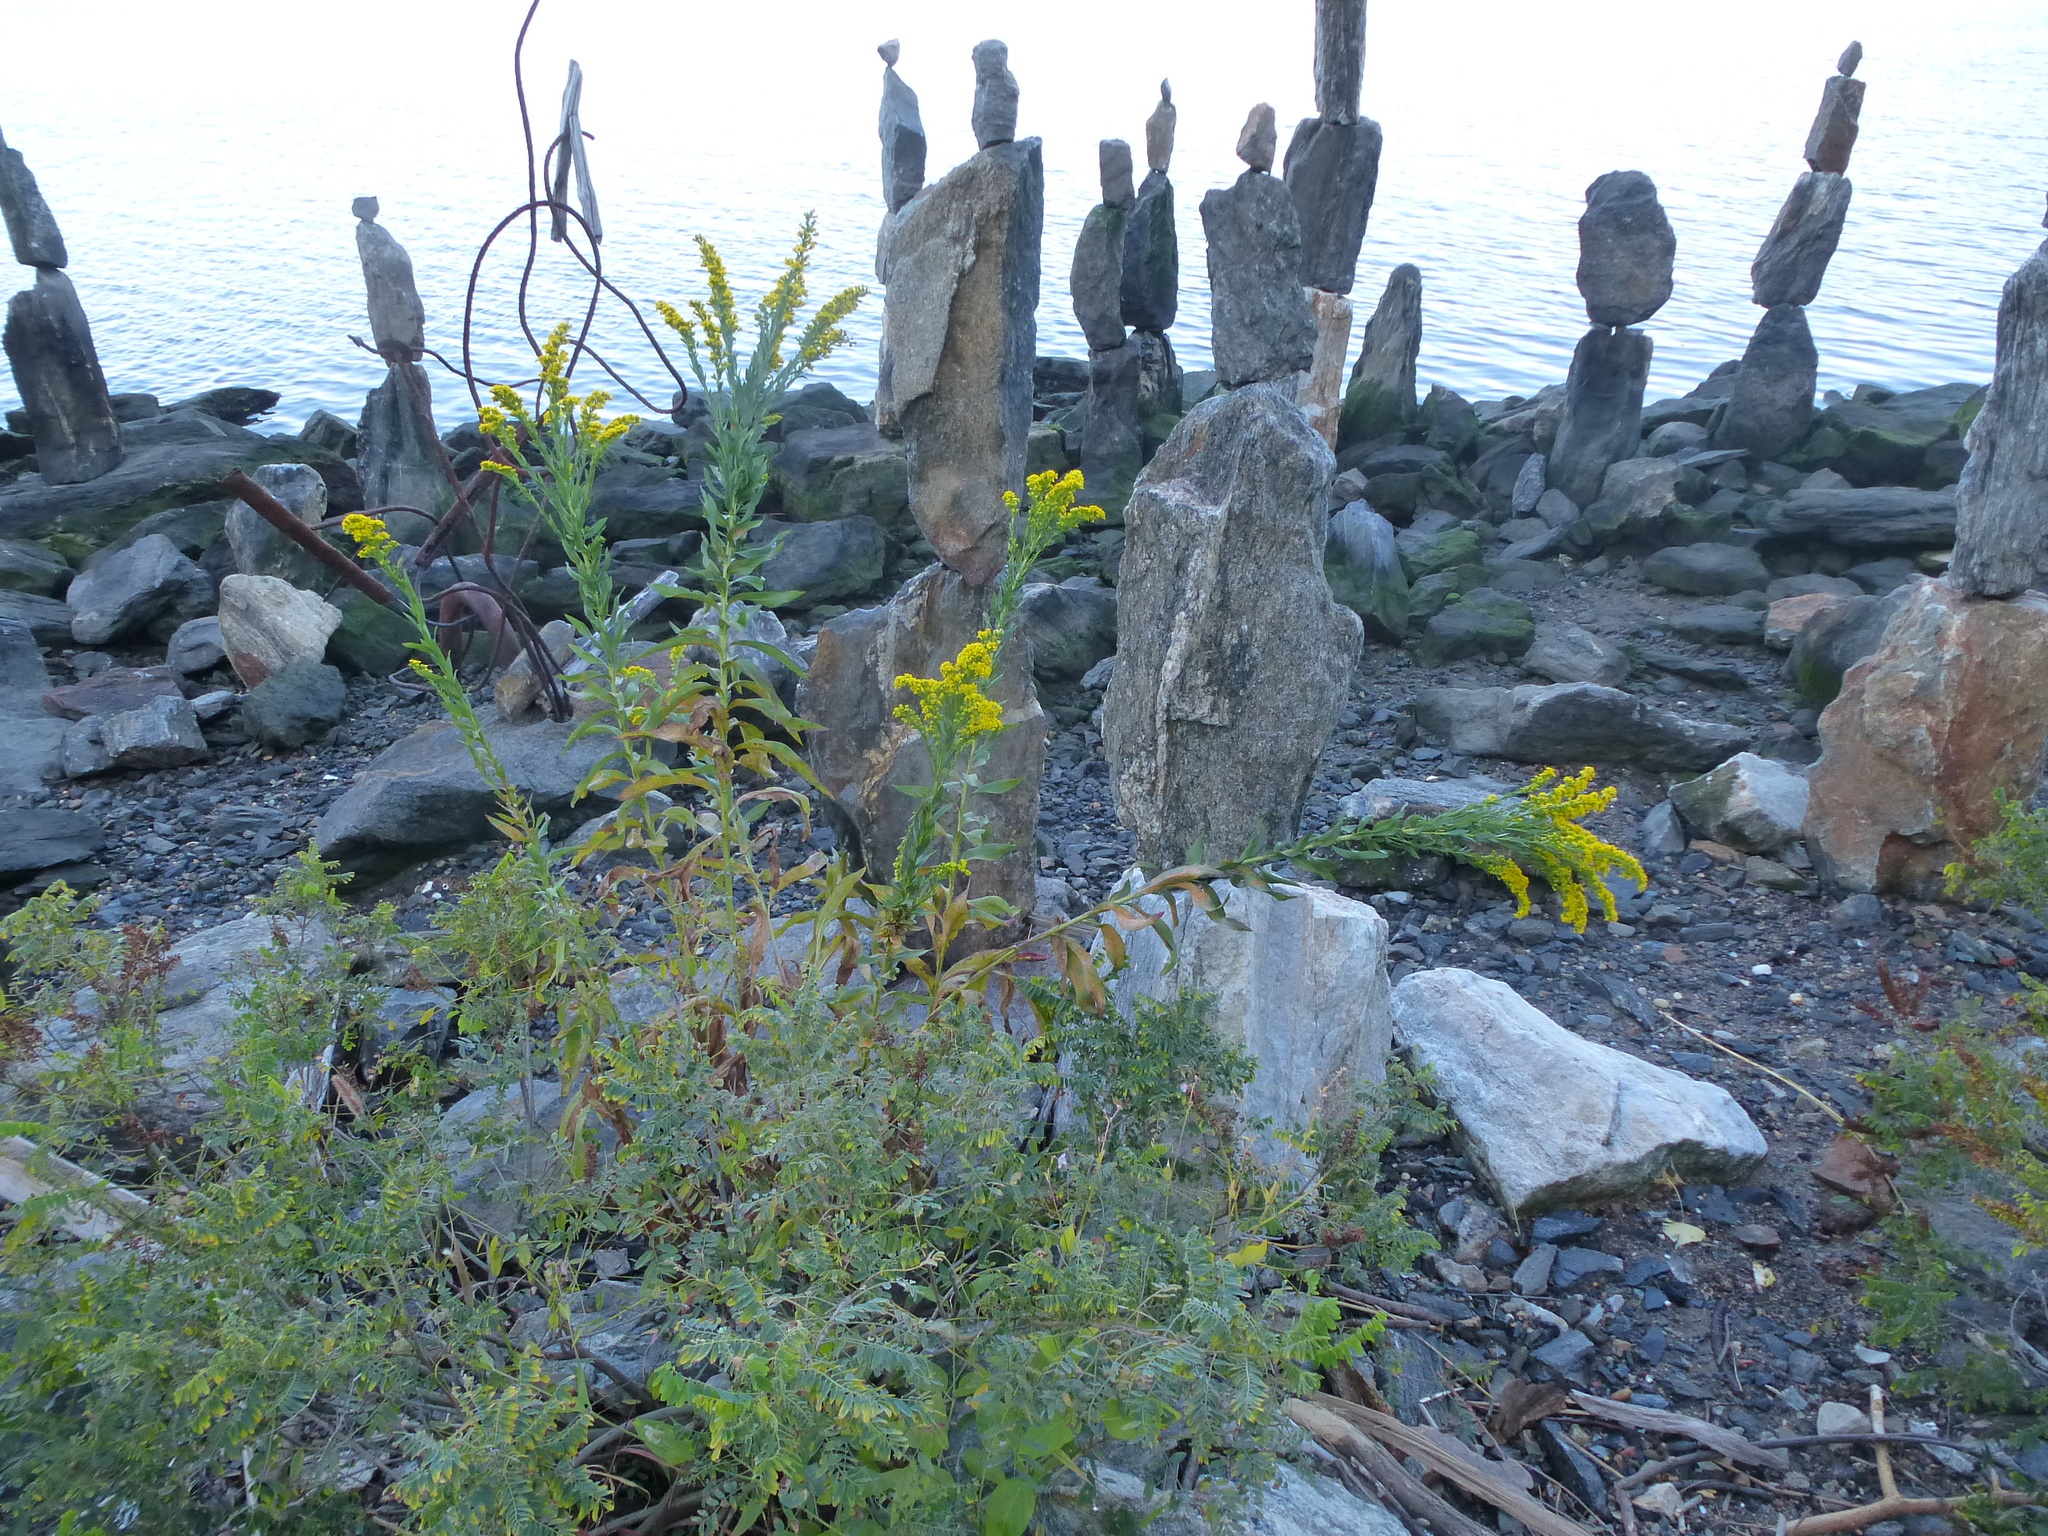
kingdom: Plantae
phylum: Tracheophyta
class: Magnoliopsida
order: Asterales
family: Asteraceae
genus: Solidago
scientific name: Solidago sempervirens
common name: Salt-marsh goldenrod
